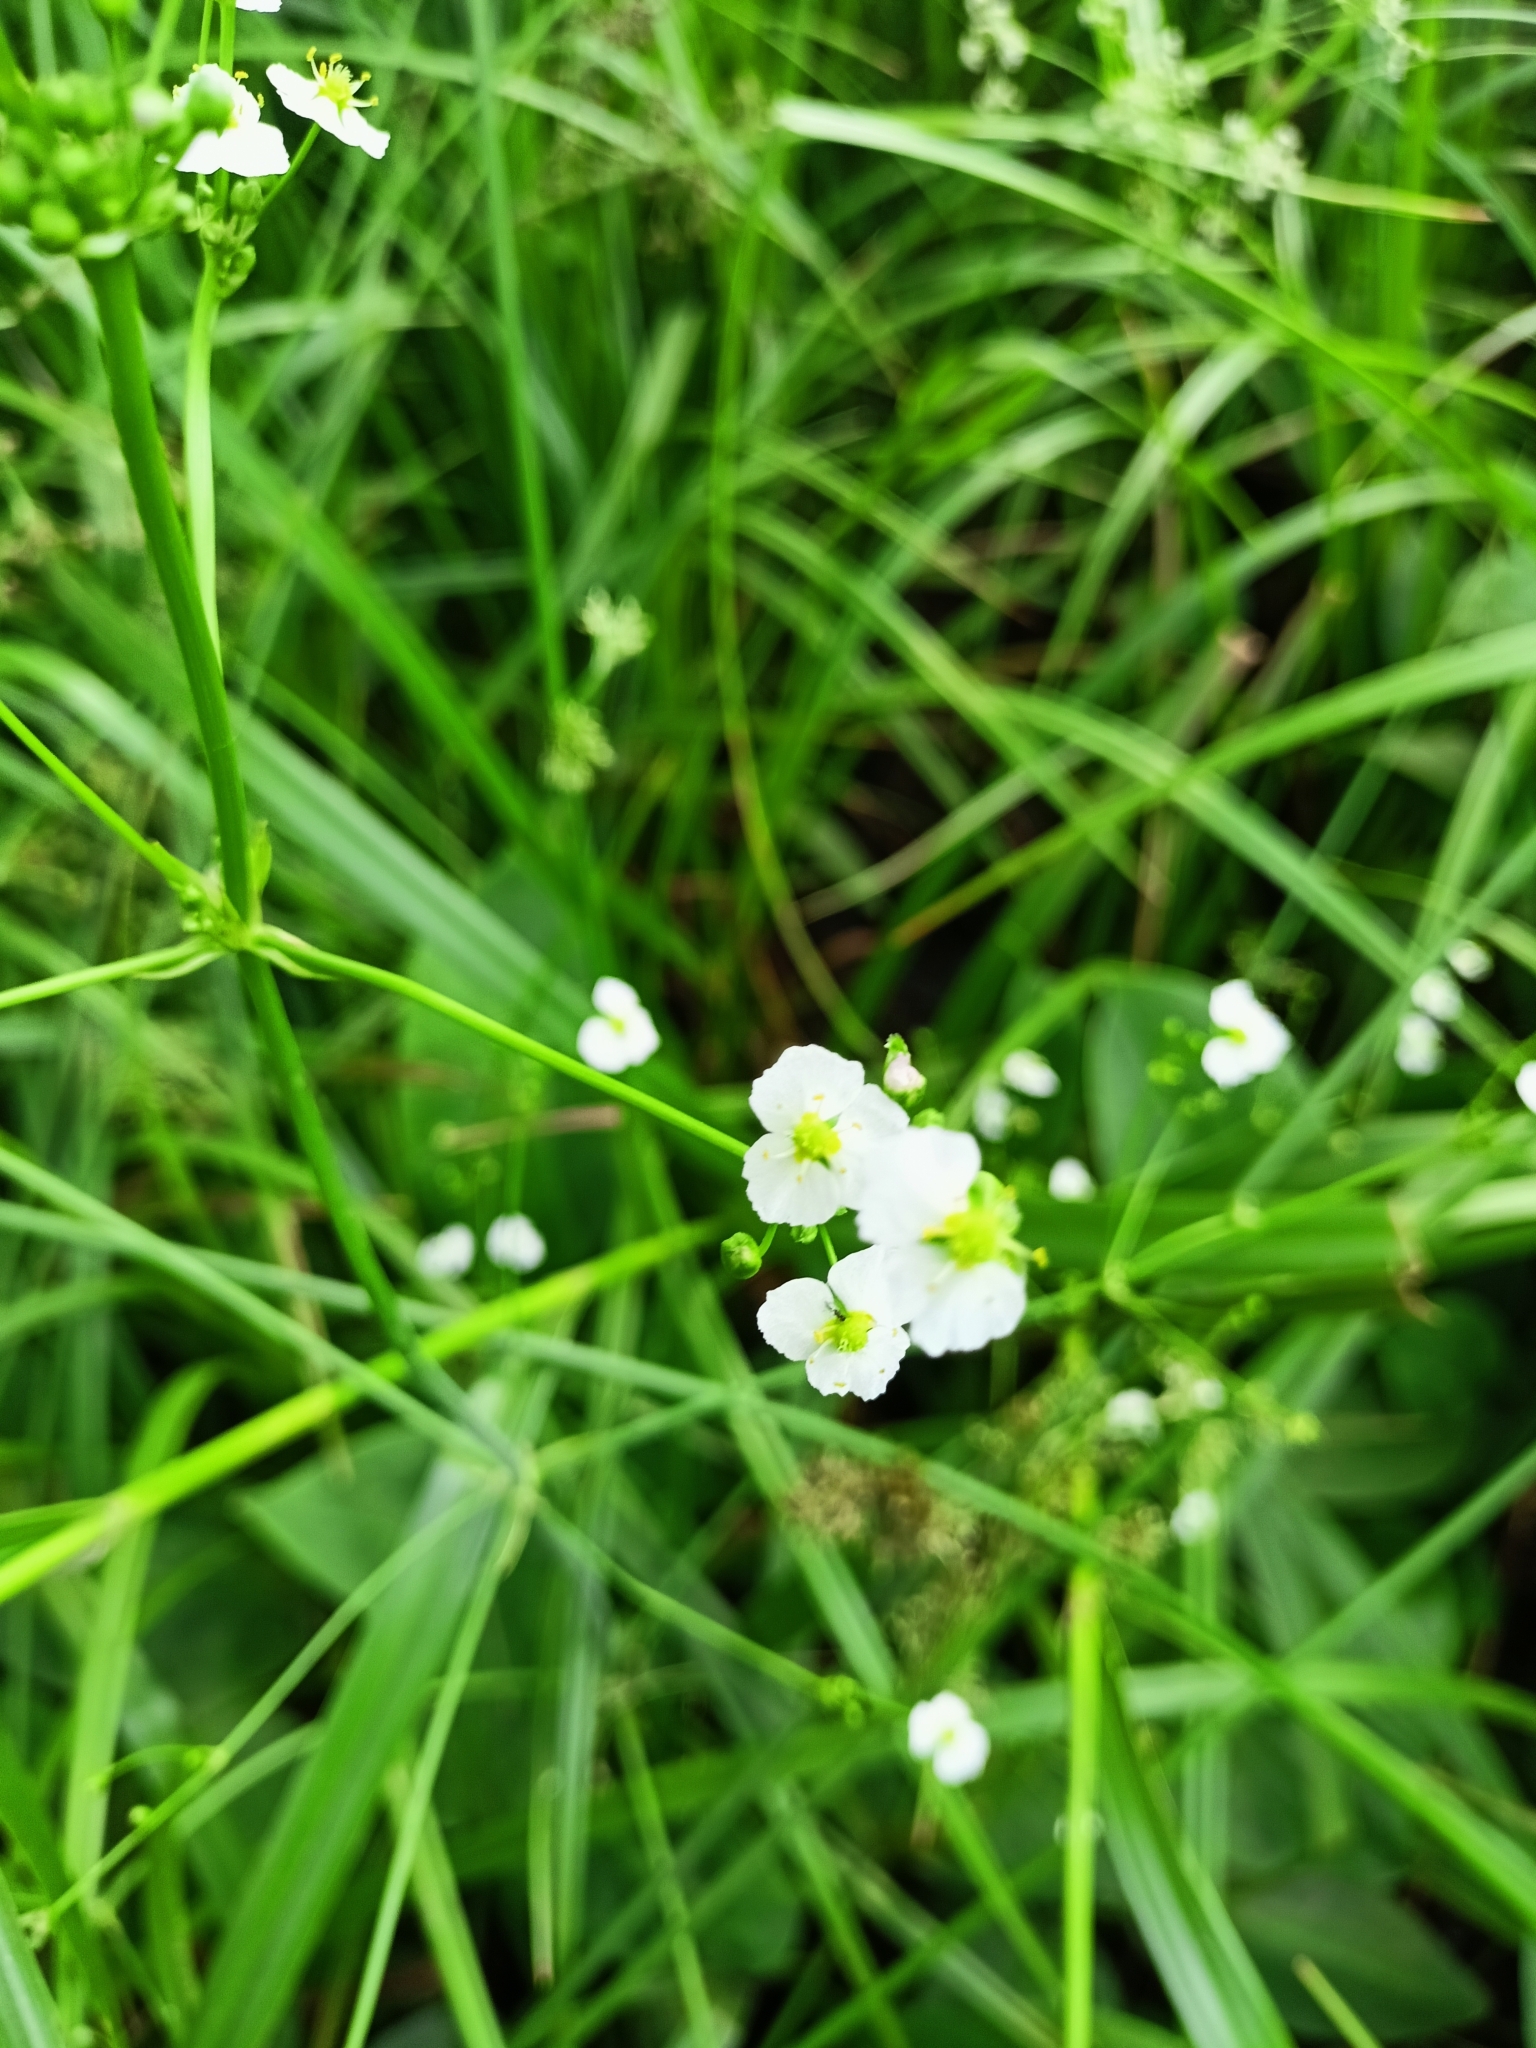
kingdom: Plantae
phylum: Tracheophyta
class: Liliopsida
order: Alismatales
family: Alismataceae
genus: Alisma
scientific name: Alisma plantago-aquatica
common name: Water-plantain
